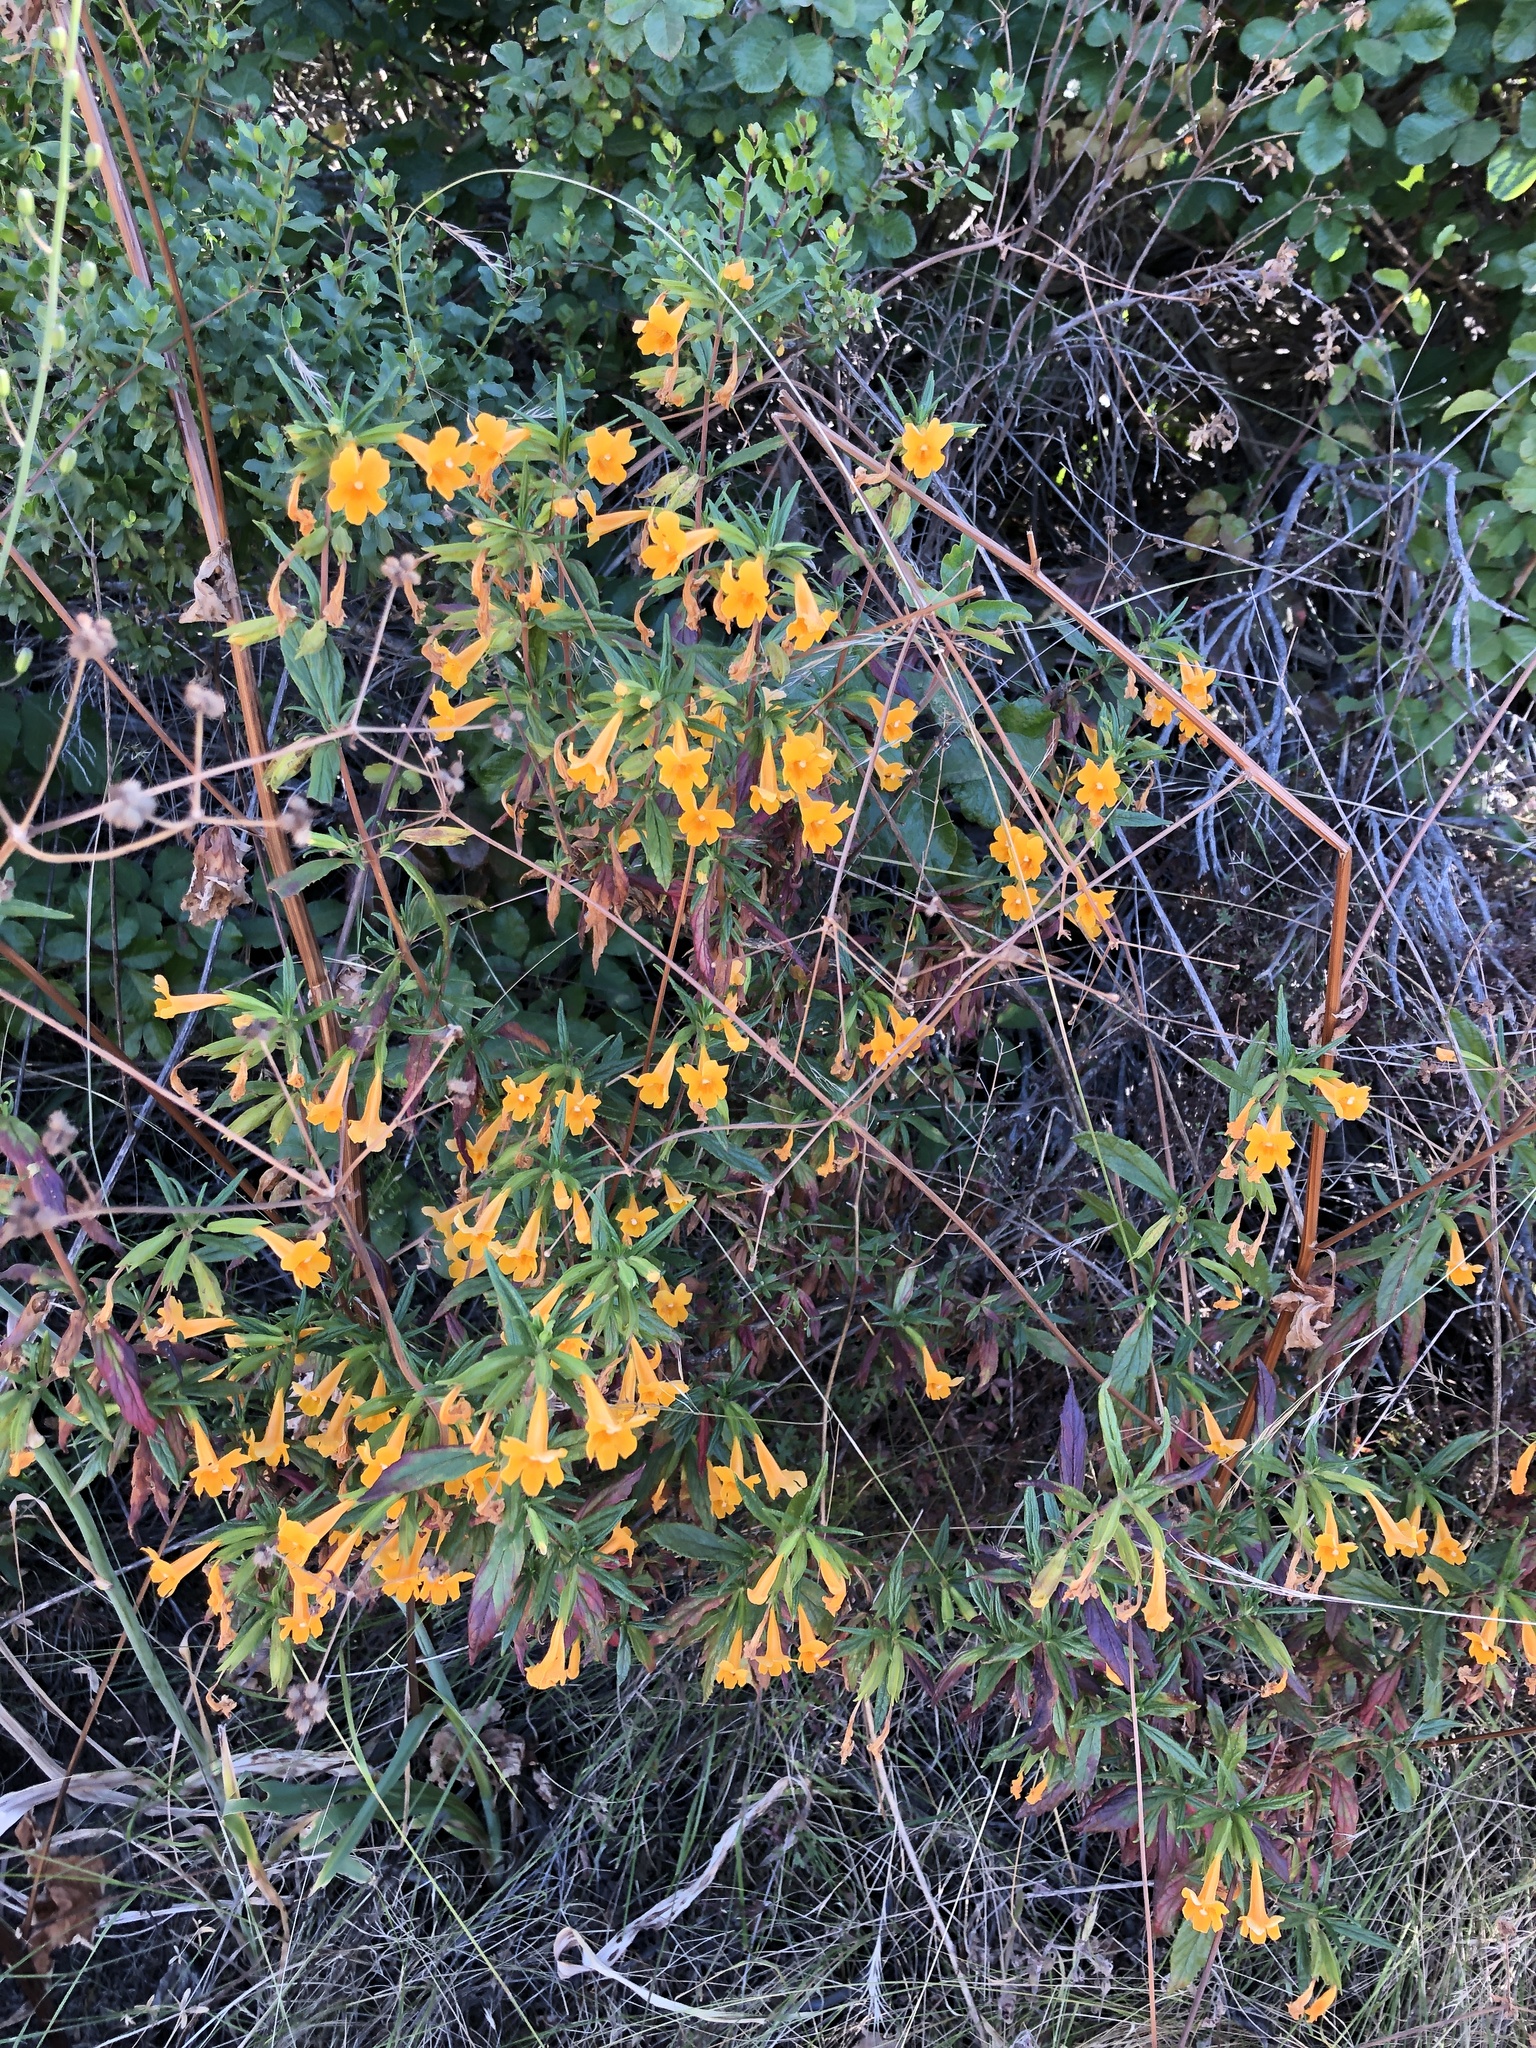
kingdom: Plantae
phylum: Tracheophyta
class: Magnoliopsida
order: Lamiales
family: Phrymaceae
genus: Diplacus
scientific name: Diplacus aurantiacus
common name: Bush monkey-flower
